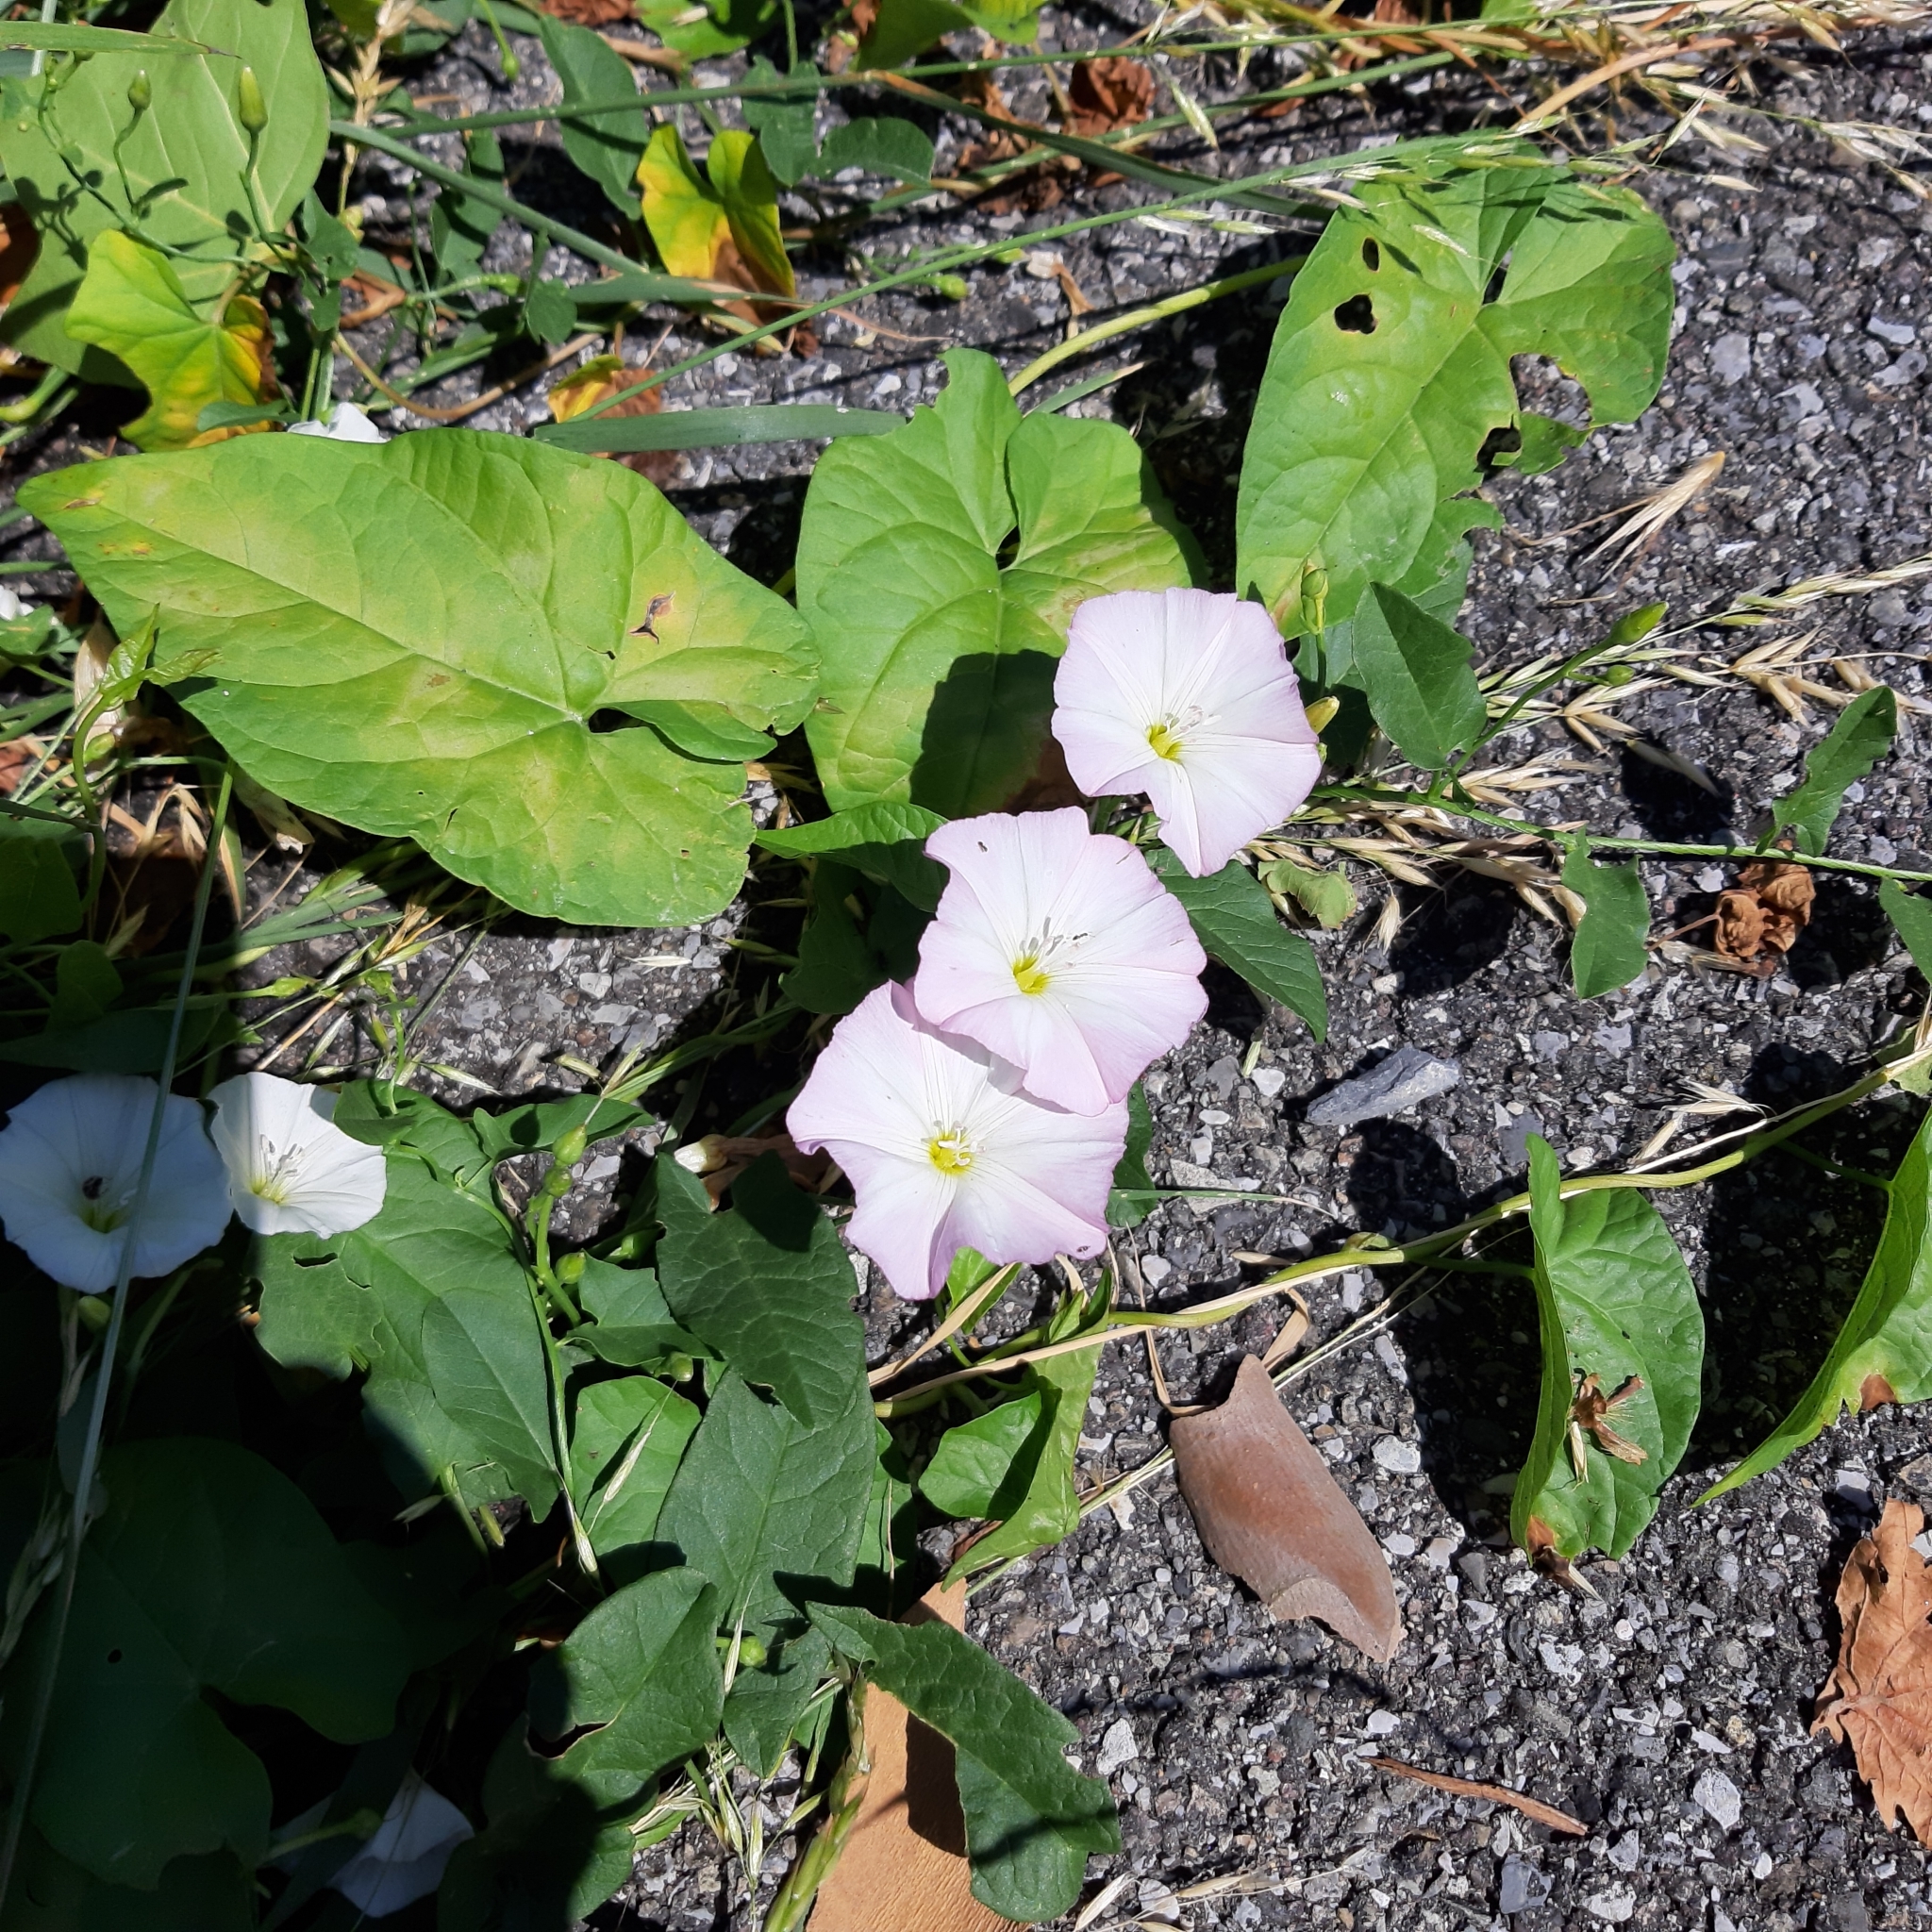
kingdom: Plantae
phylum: Tracheophyta
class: Magnoliopsida
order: Solanales
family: Convolvulaceae
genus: Convolvulus
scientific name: Convolvulus arvensis
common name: Field bindweed
